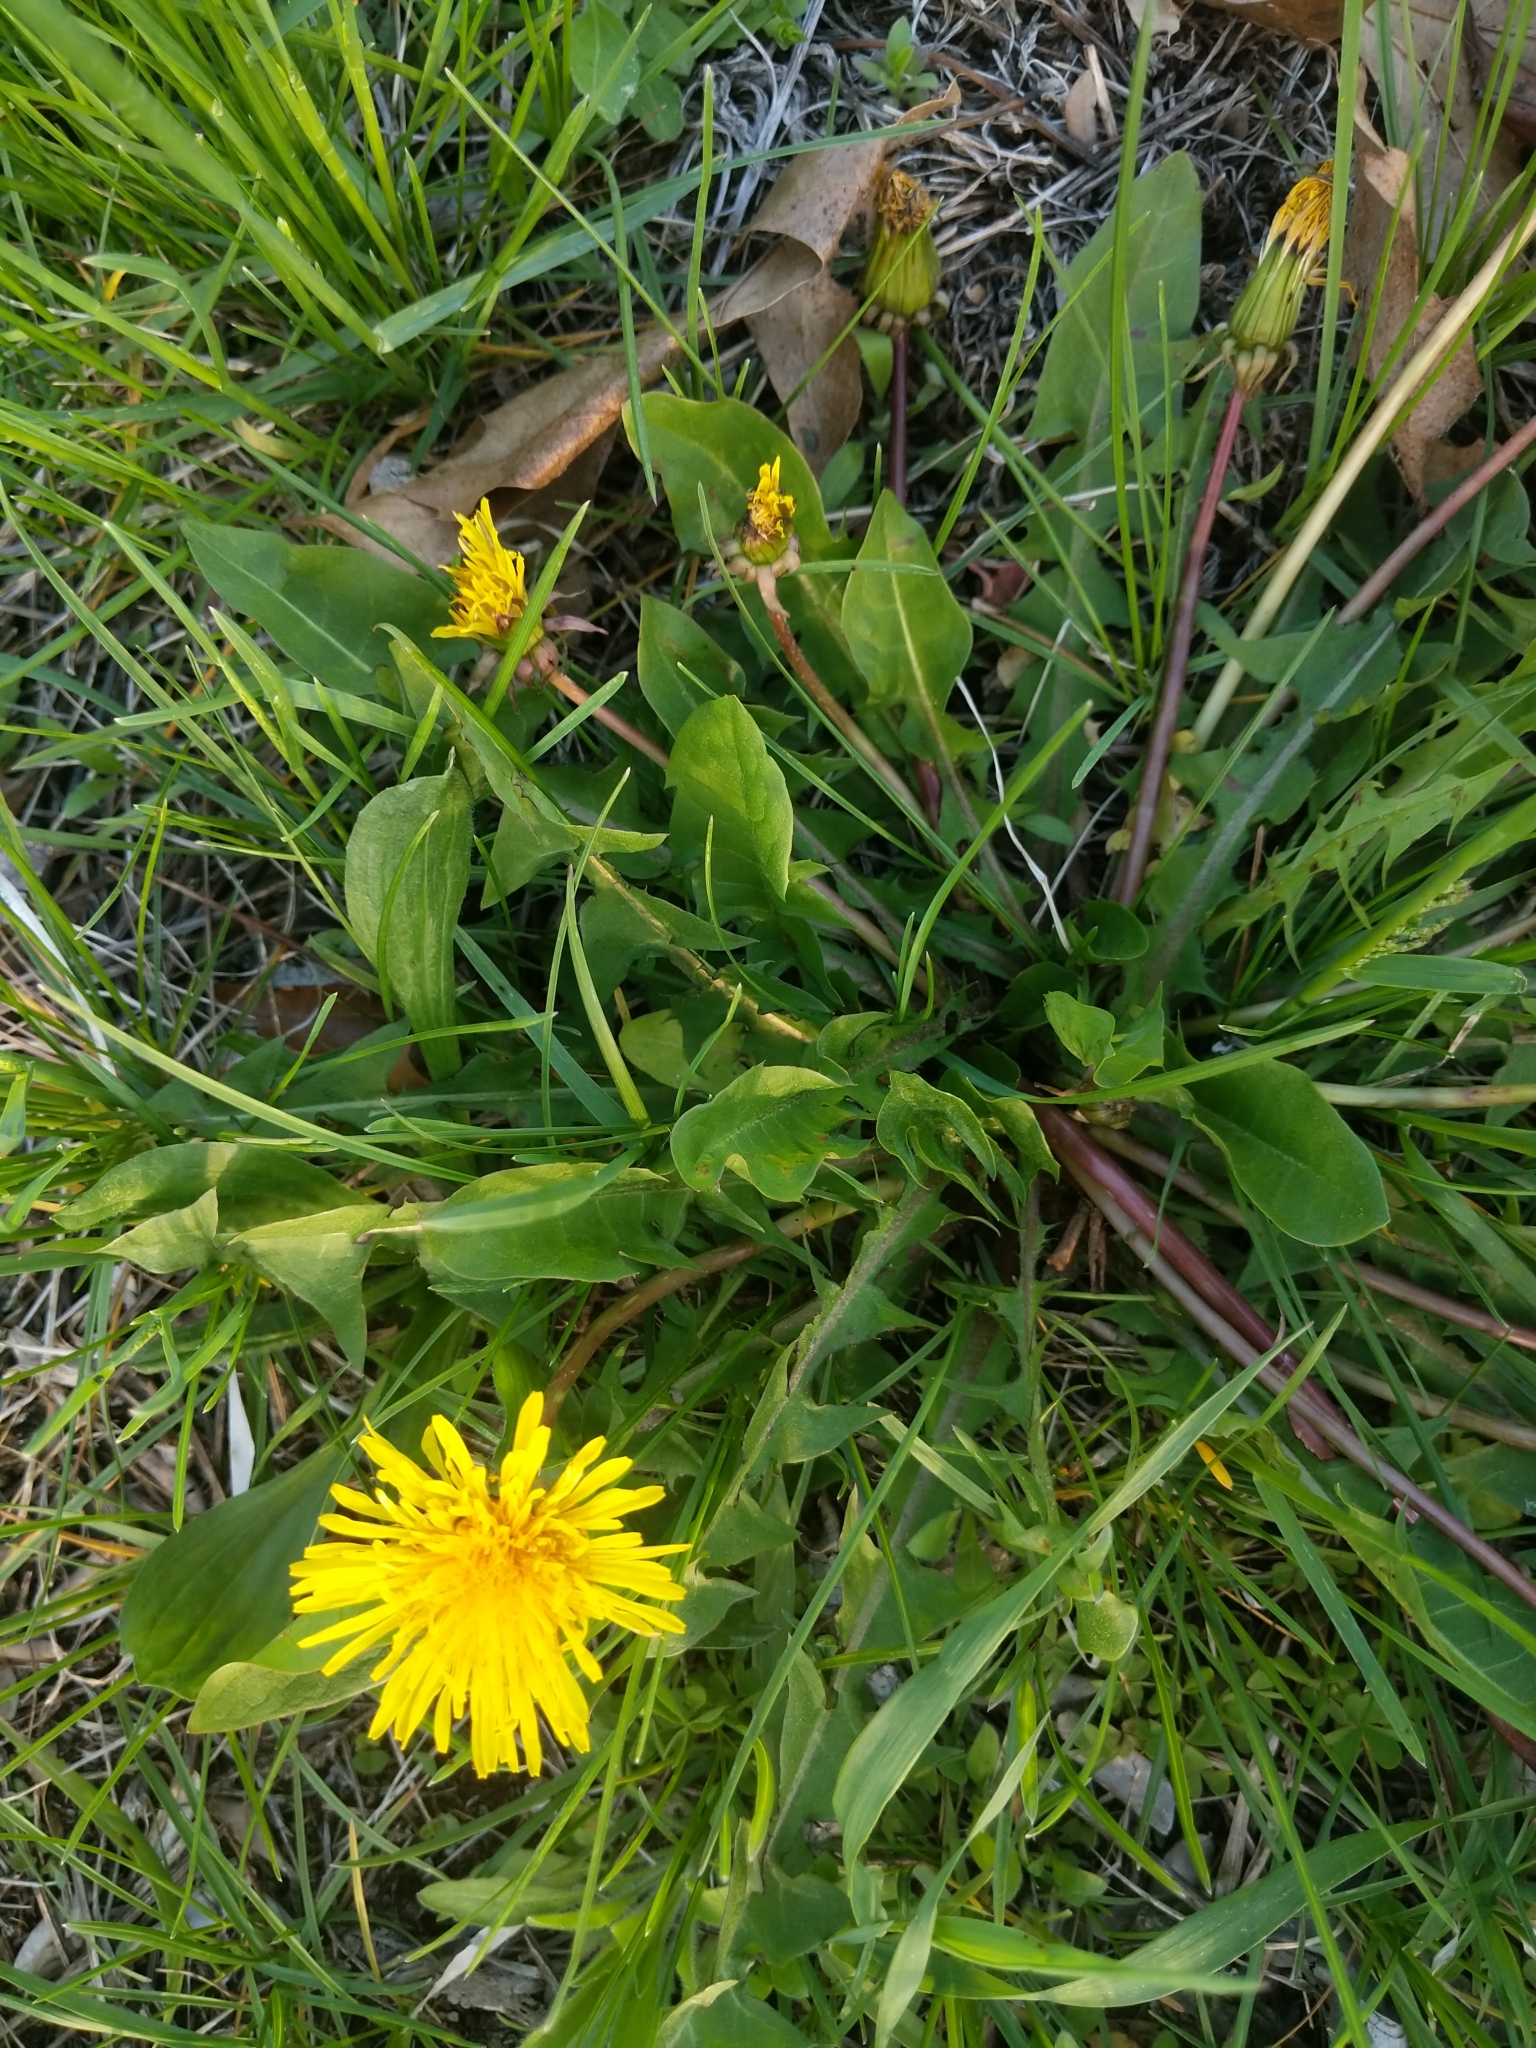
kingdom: Plantae
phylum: Tracheophyta
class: Magnoliopsida
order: Asterales
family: Asteraceae
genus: Taraxacum
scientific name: Taraxacum officinale
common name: Common dandelion
